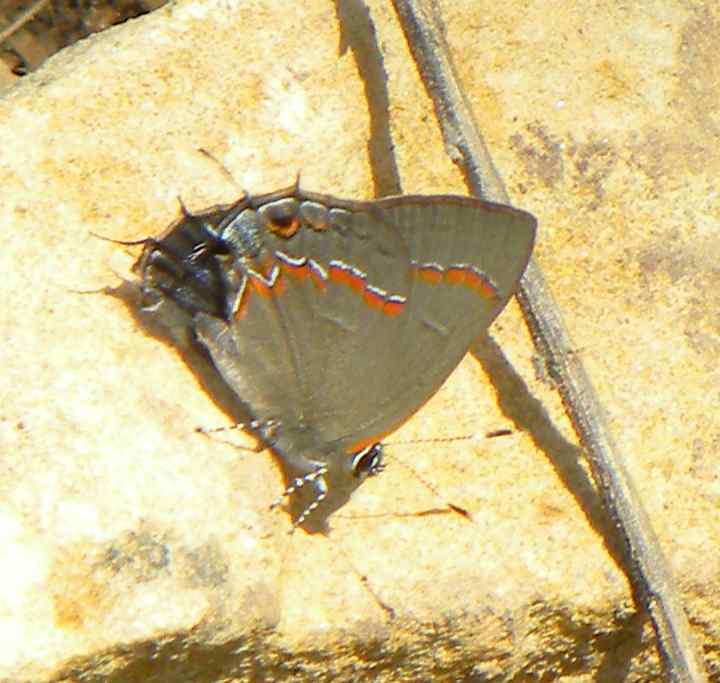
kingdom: Animalia
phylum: Arthropoda
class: Insecta
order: Lepidoptera
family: Lycaenidae
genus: Calycopis
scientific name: Calycopis cecrops
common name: Red-banded hairstreak
